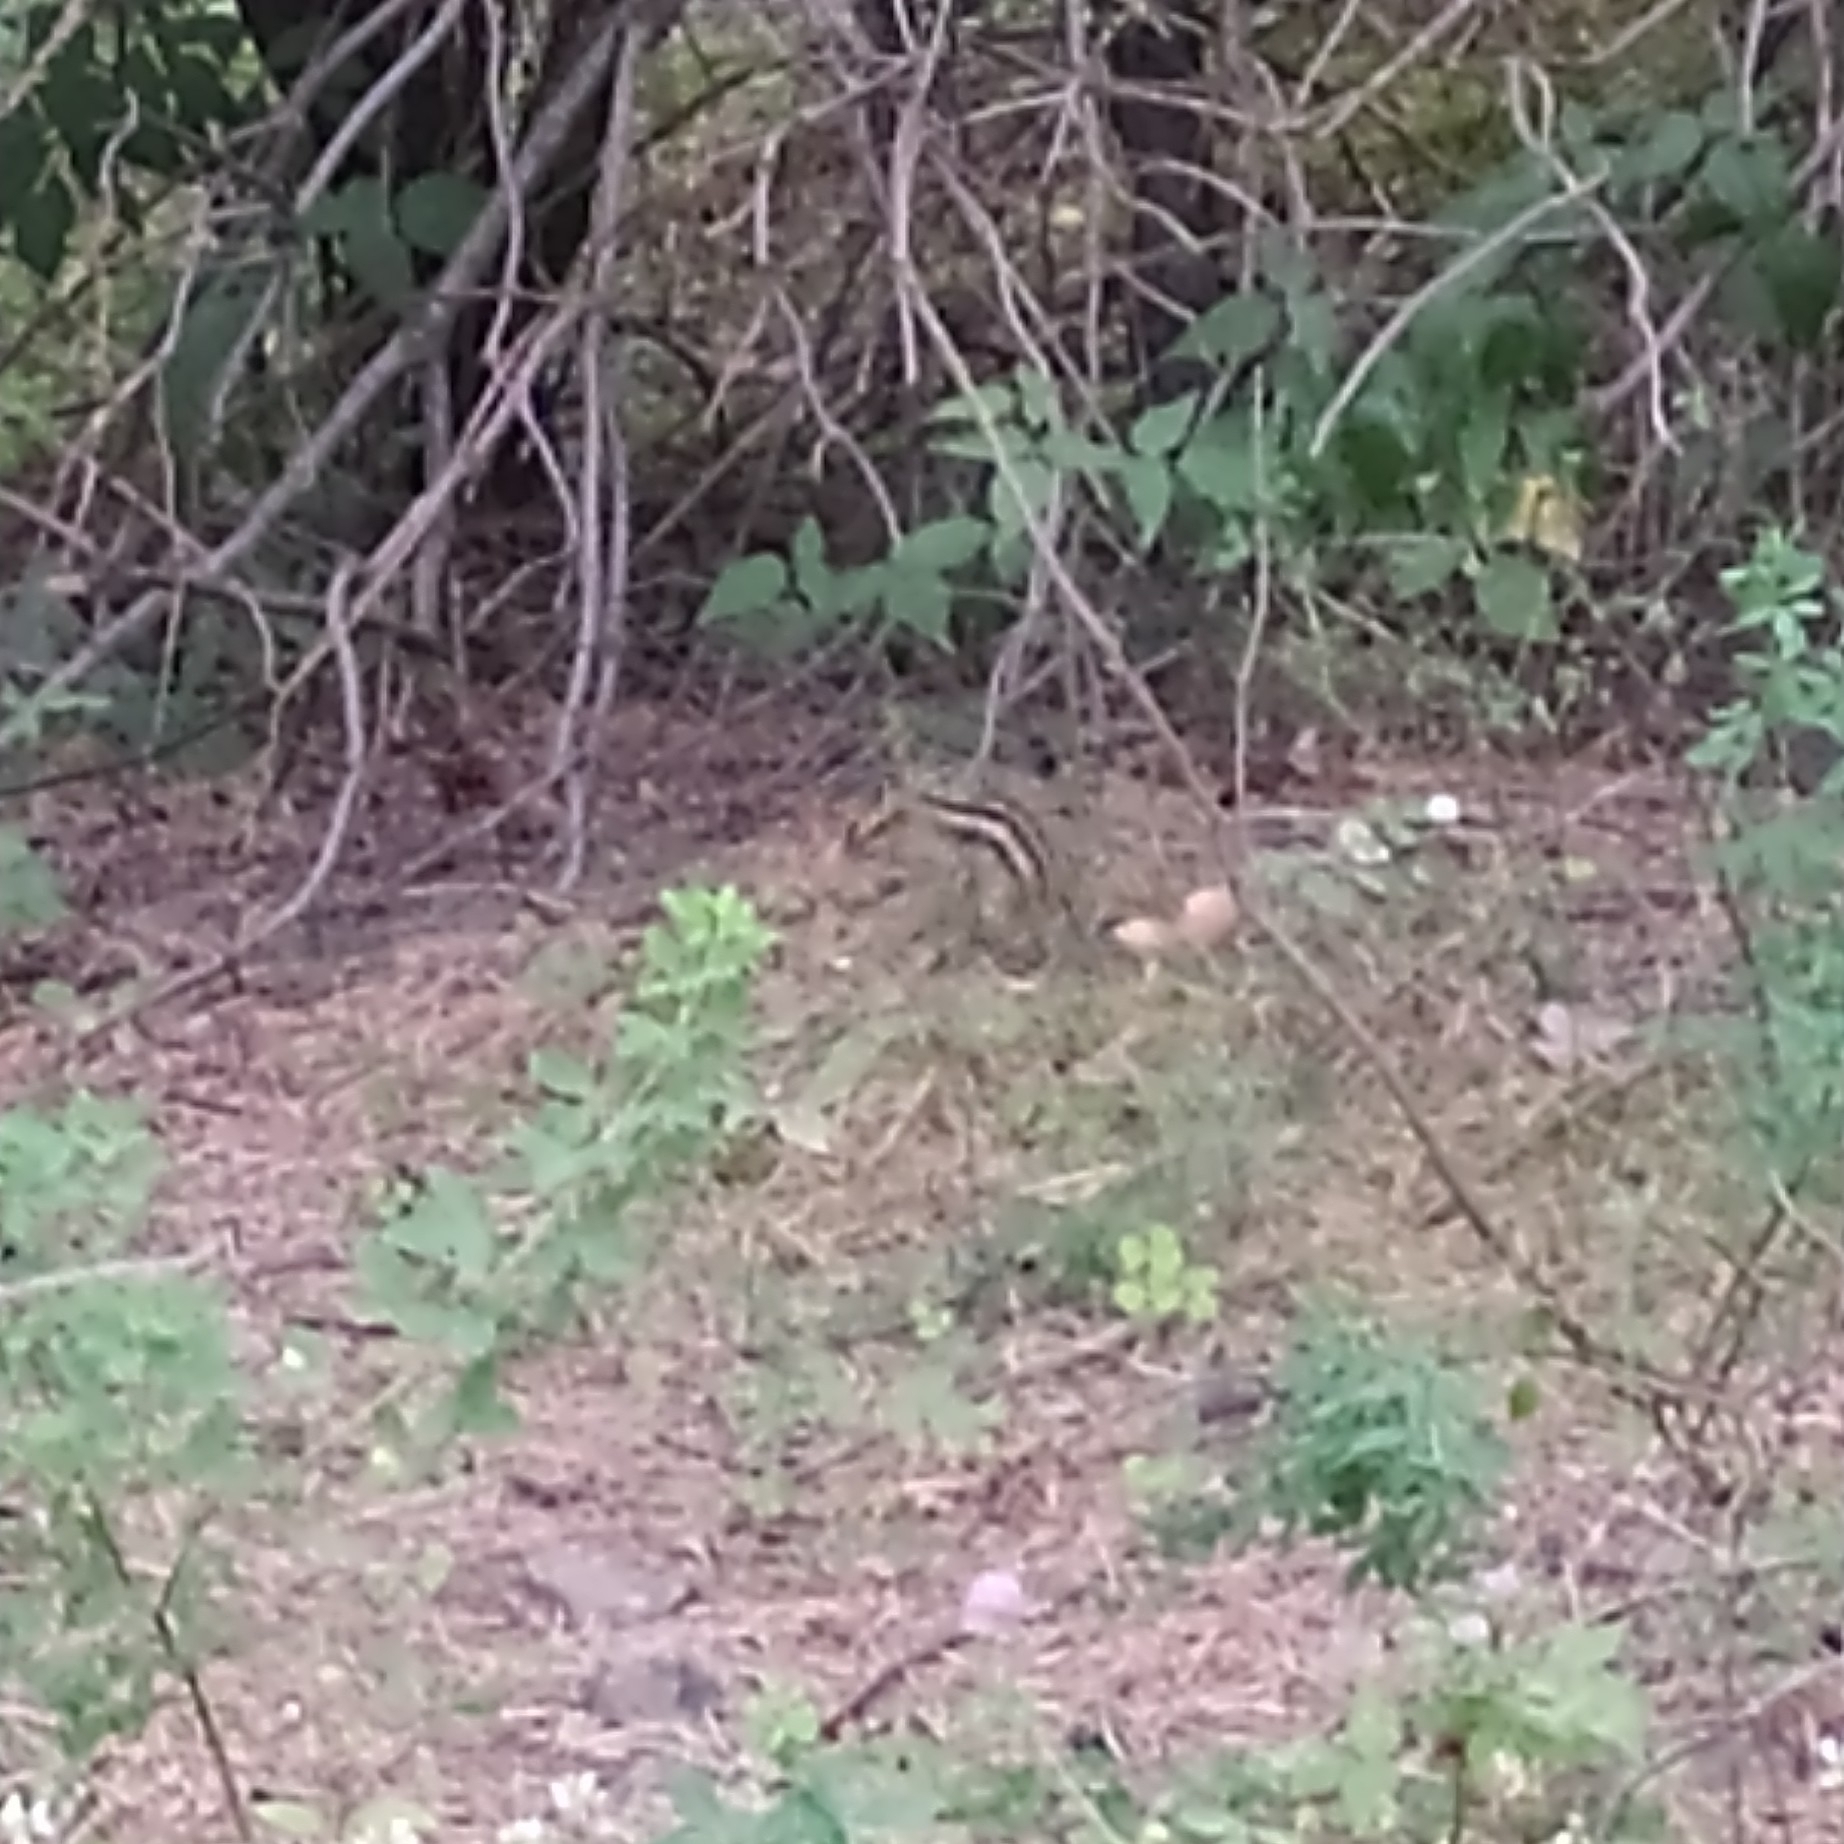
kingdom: Animalia
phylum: Chordata
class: Mammalia
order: Rodentia
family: Sciuridae
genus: Tamias
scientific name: Tamias sibiricus
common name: Siberian chipmunk
